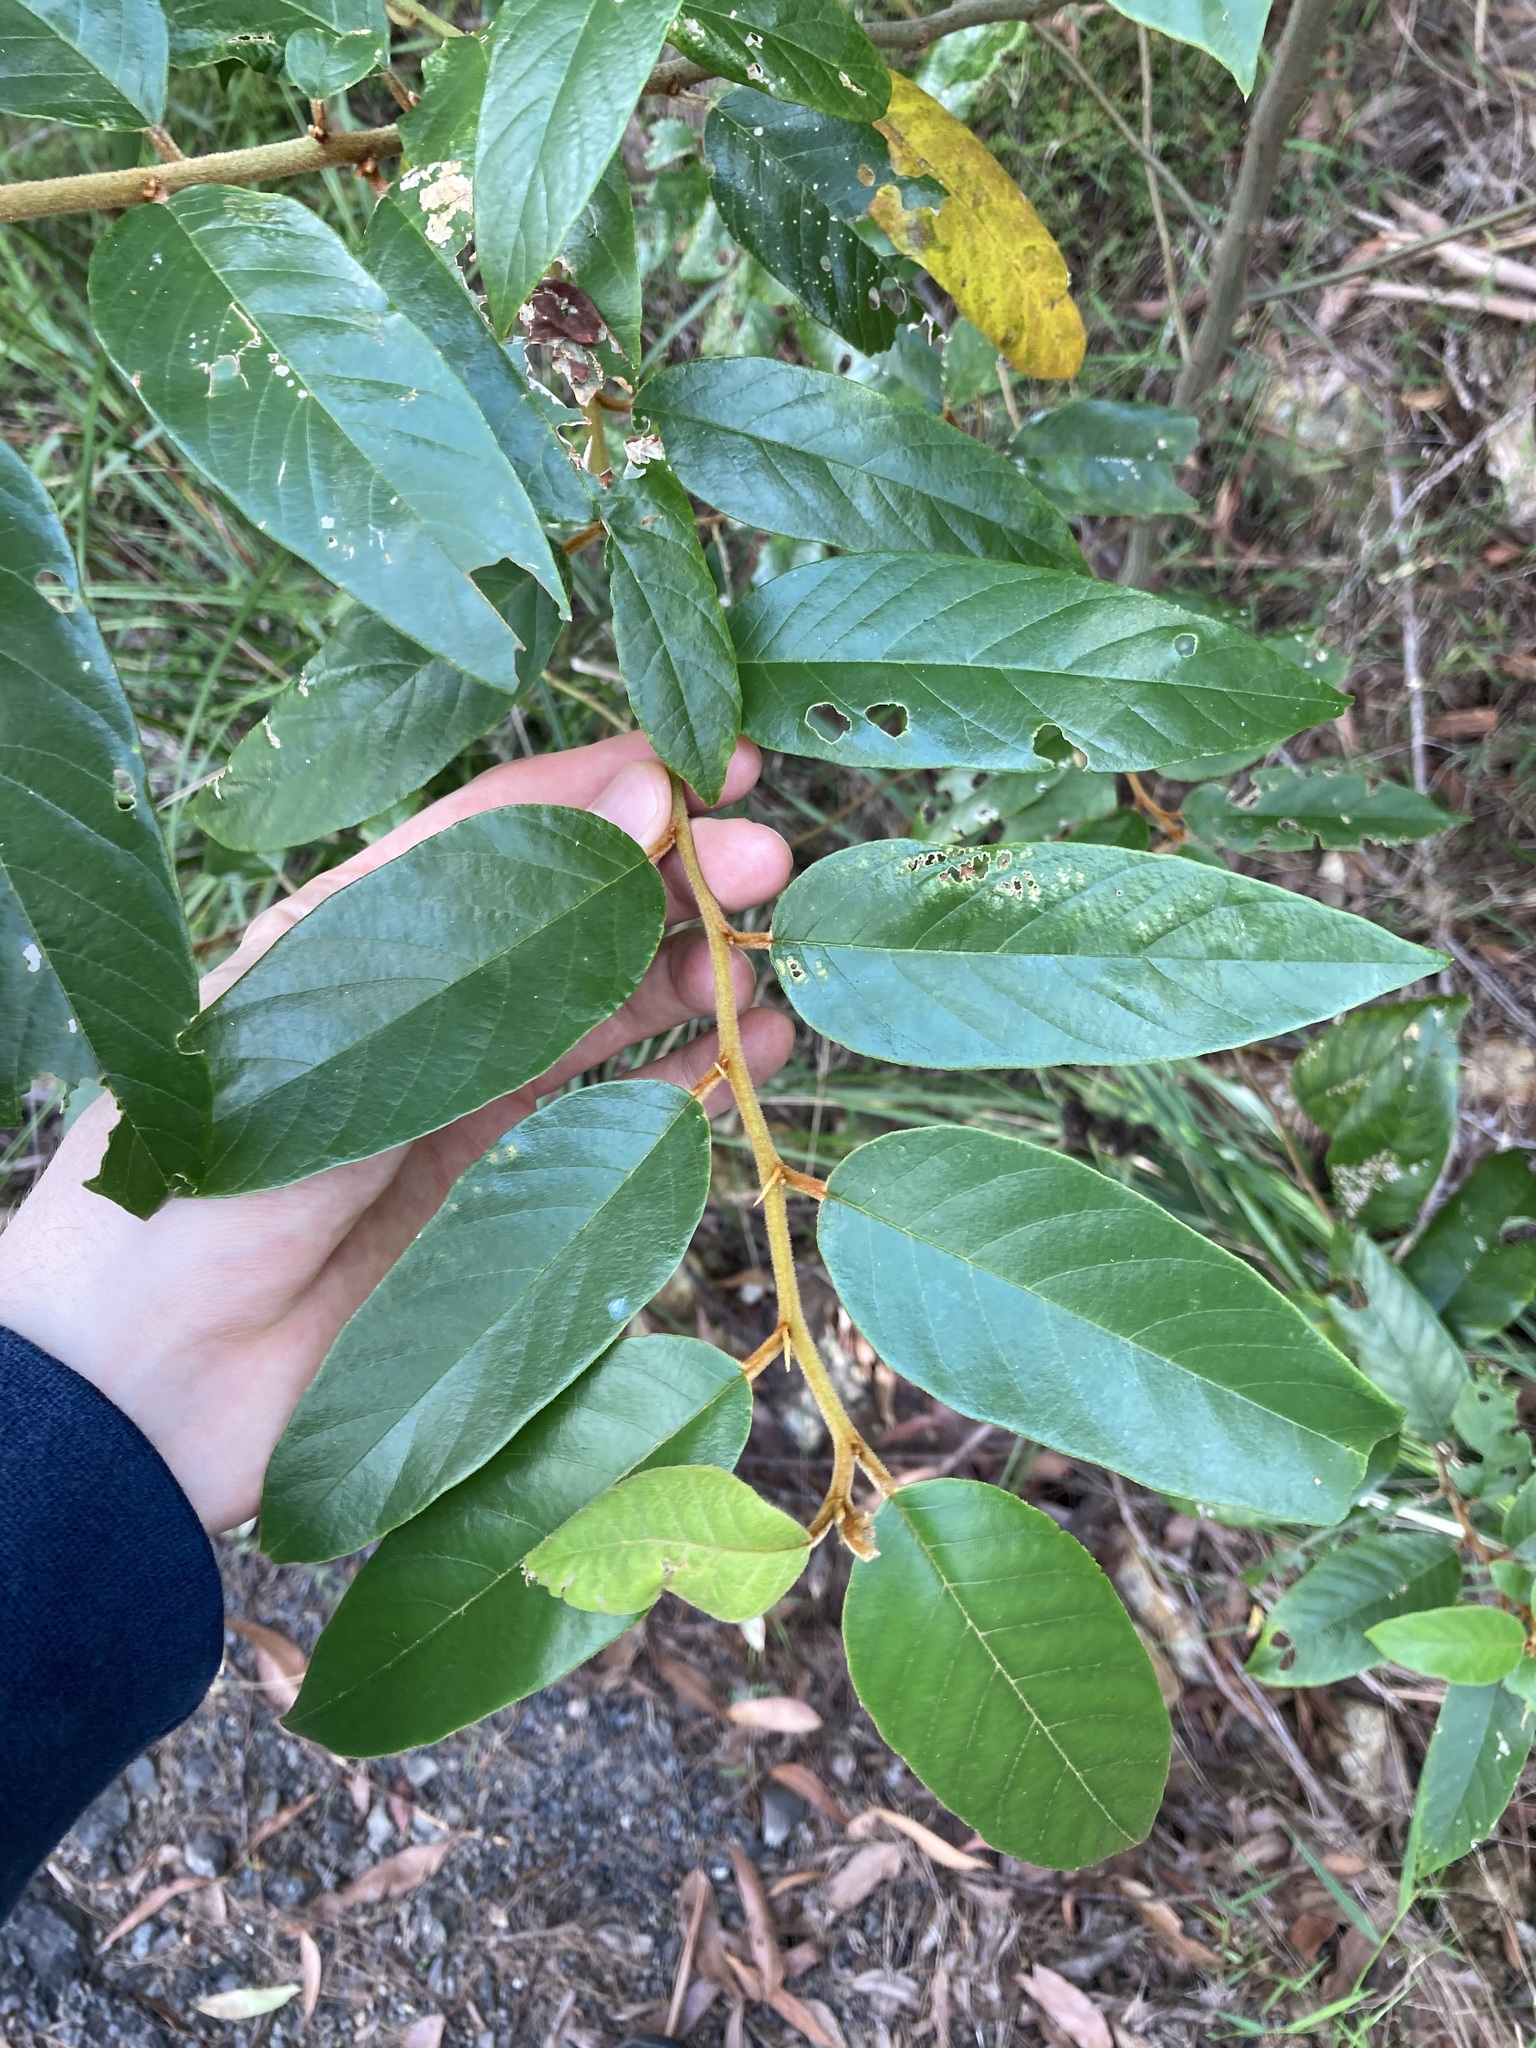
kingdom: Plantae
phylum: Tracheophyta
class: Magnoliopsida
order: Rosales
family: Rhamnaceae
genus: Alphitonia
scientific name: Alphitonia excelsa
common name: Red ash
